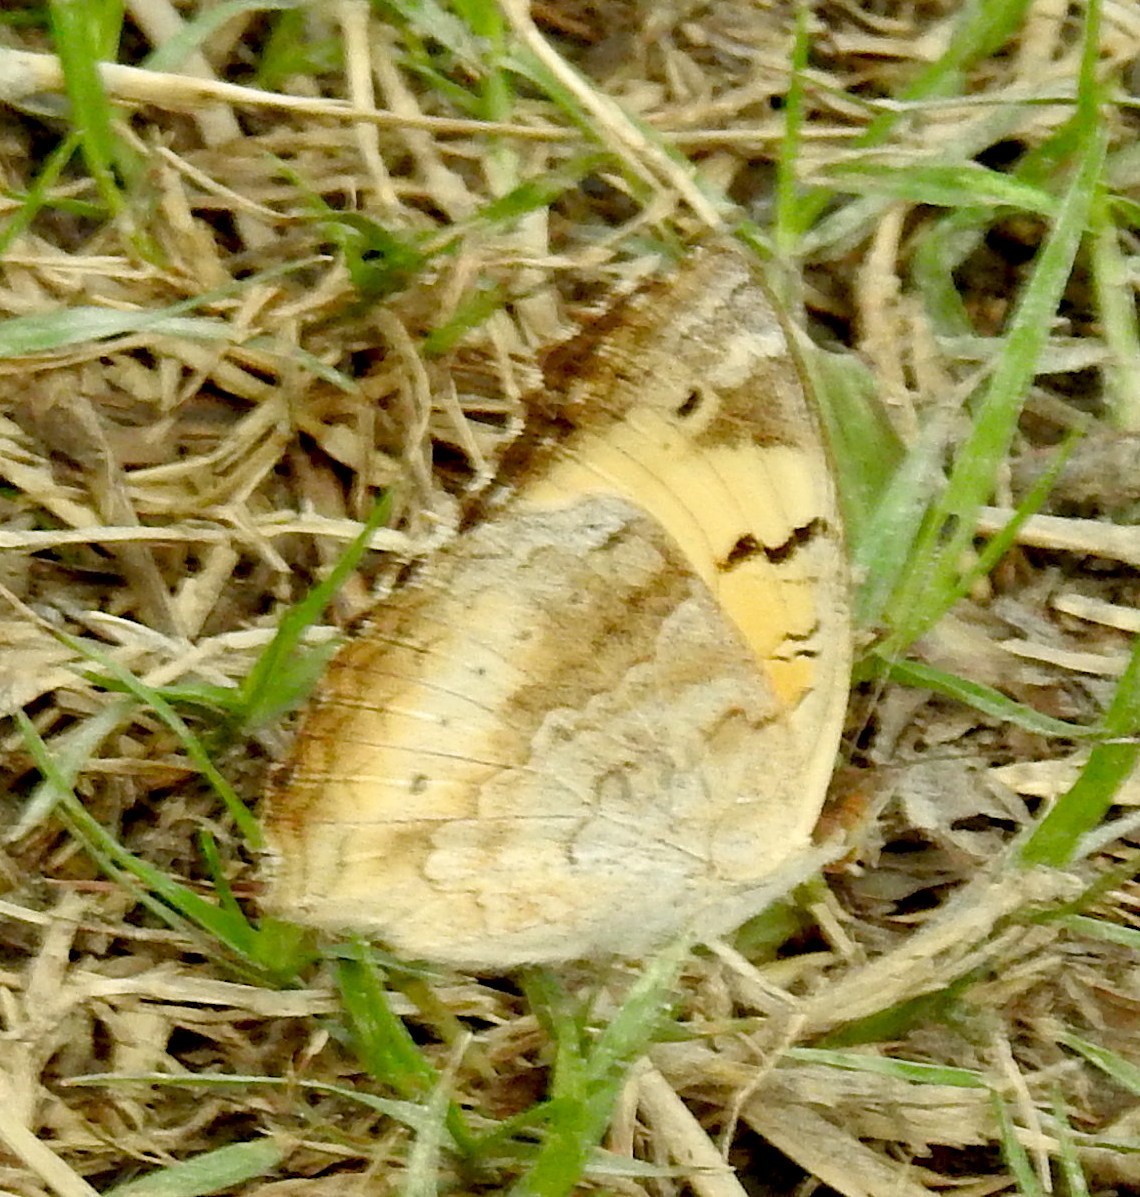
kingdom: Animalia
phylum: Arthropoda
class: Insecta
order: Lepidoptera
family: Nymphalidae
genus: Junonia
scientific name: Junonia hierta
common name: Yellow pansy
